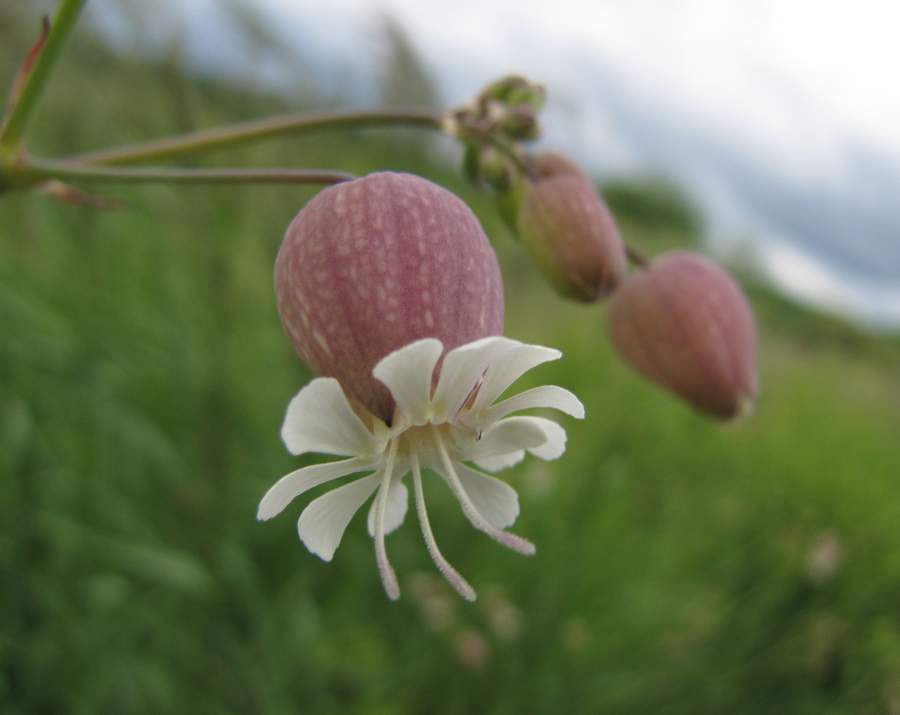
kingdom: Plantae
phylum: Tracheophyta
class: Magnoliopsida
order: Caryophyllales
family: Caryophyllaceae
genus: Silene
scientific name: Silene vulgaris
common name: Bladder campion
